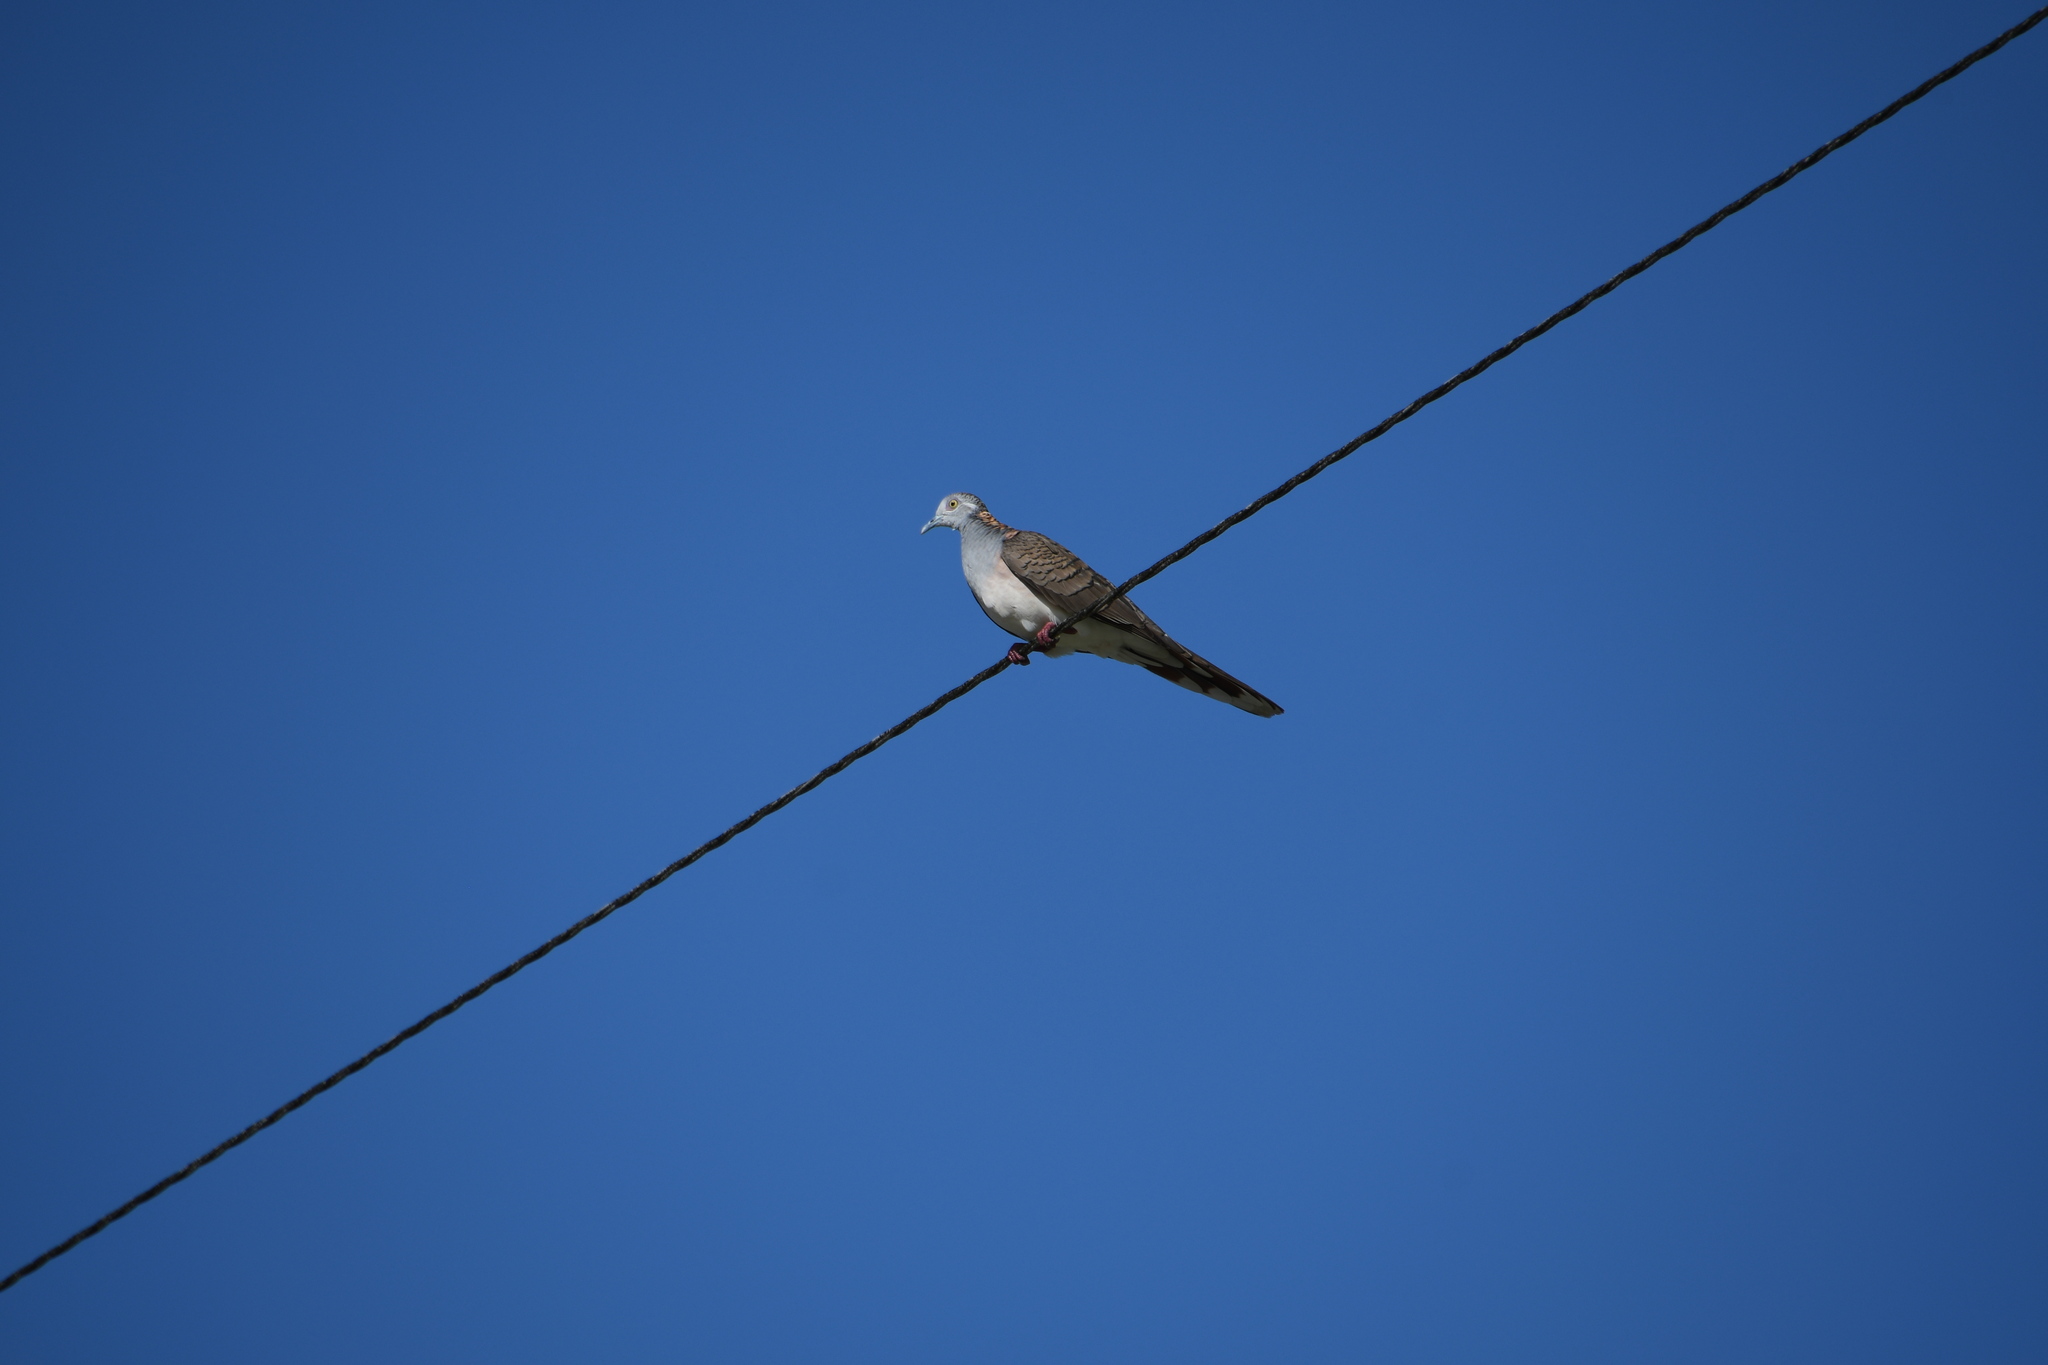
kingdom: Animalia
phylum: Chordata
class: Aves
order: Columbiformes
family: Columbidae
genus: Geopelia
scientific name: Geopelia humeralis
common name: Bar-shouldered dove
